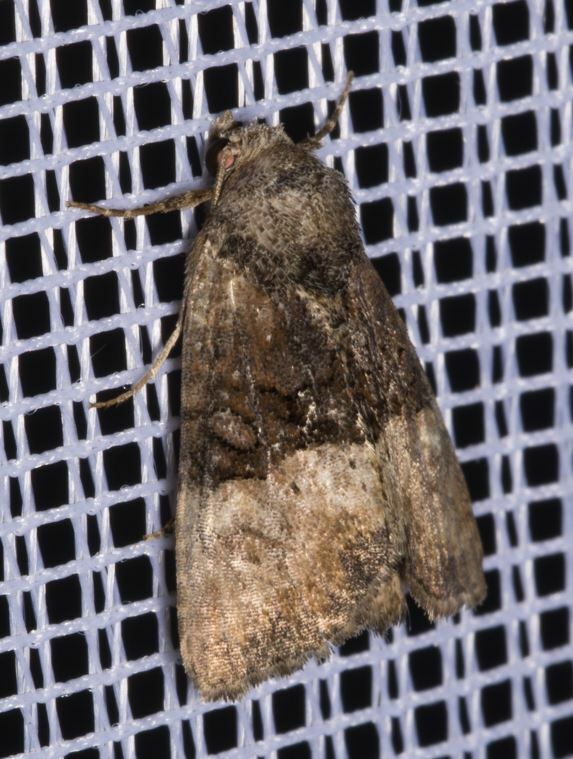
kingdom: Animalia
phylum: Arthropoda
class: Insecta
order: Lepidoptera
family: Noctuidae
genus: Mesoligia
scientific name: Mesoligia furuncula
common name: Cloaked minor
